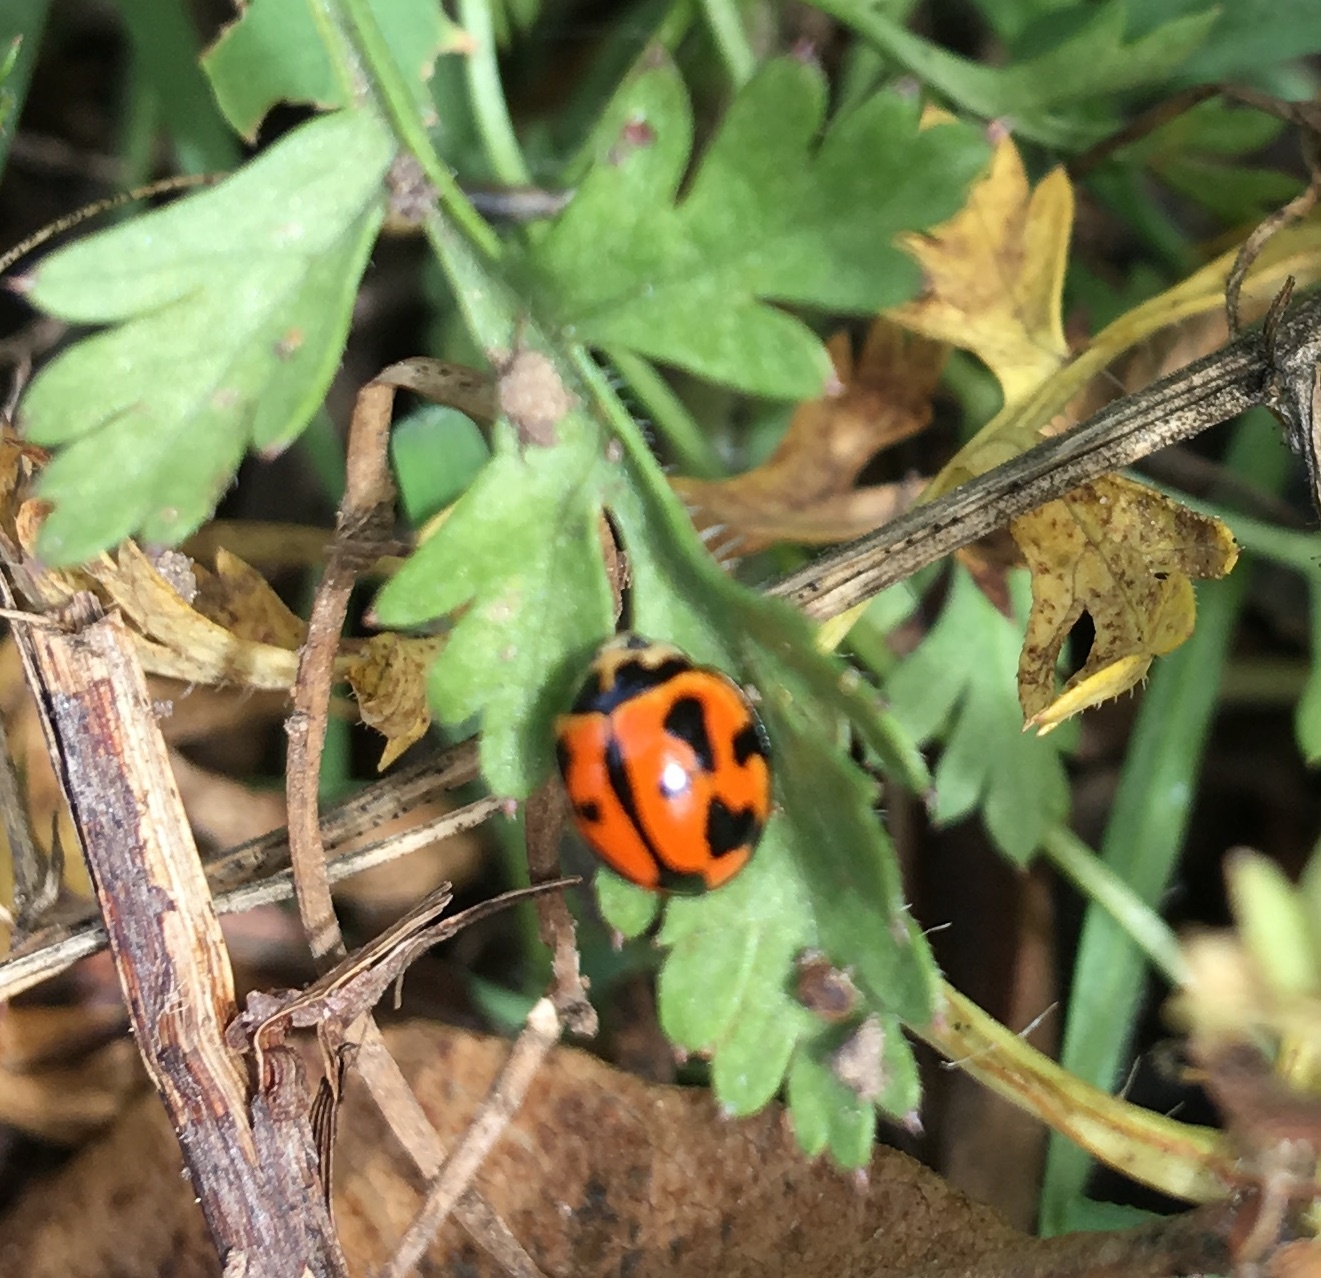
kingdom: Animalia
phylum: Arthropoda
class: Insecta
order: Coleoptera
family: Coccinellidae
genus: Coelophora
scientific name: Coelophora inaequalis
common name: Common australian lady beetle
